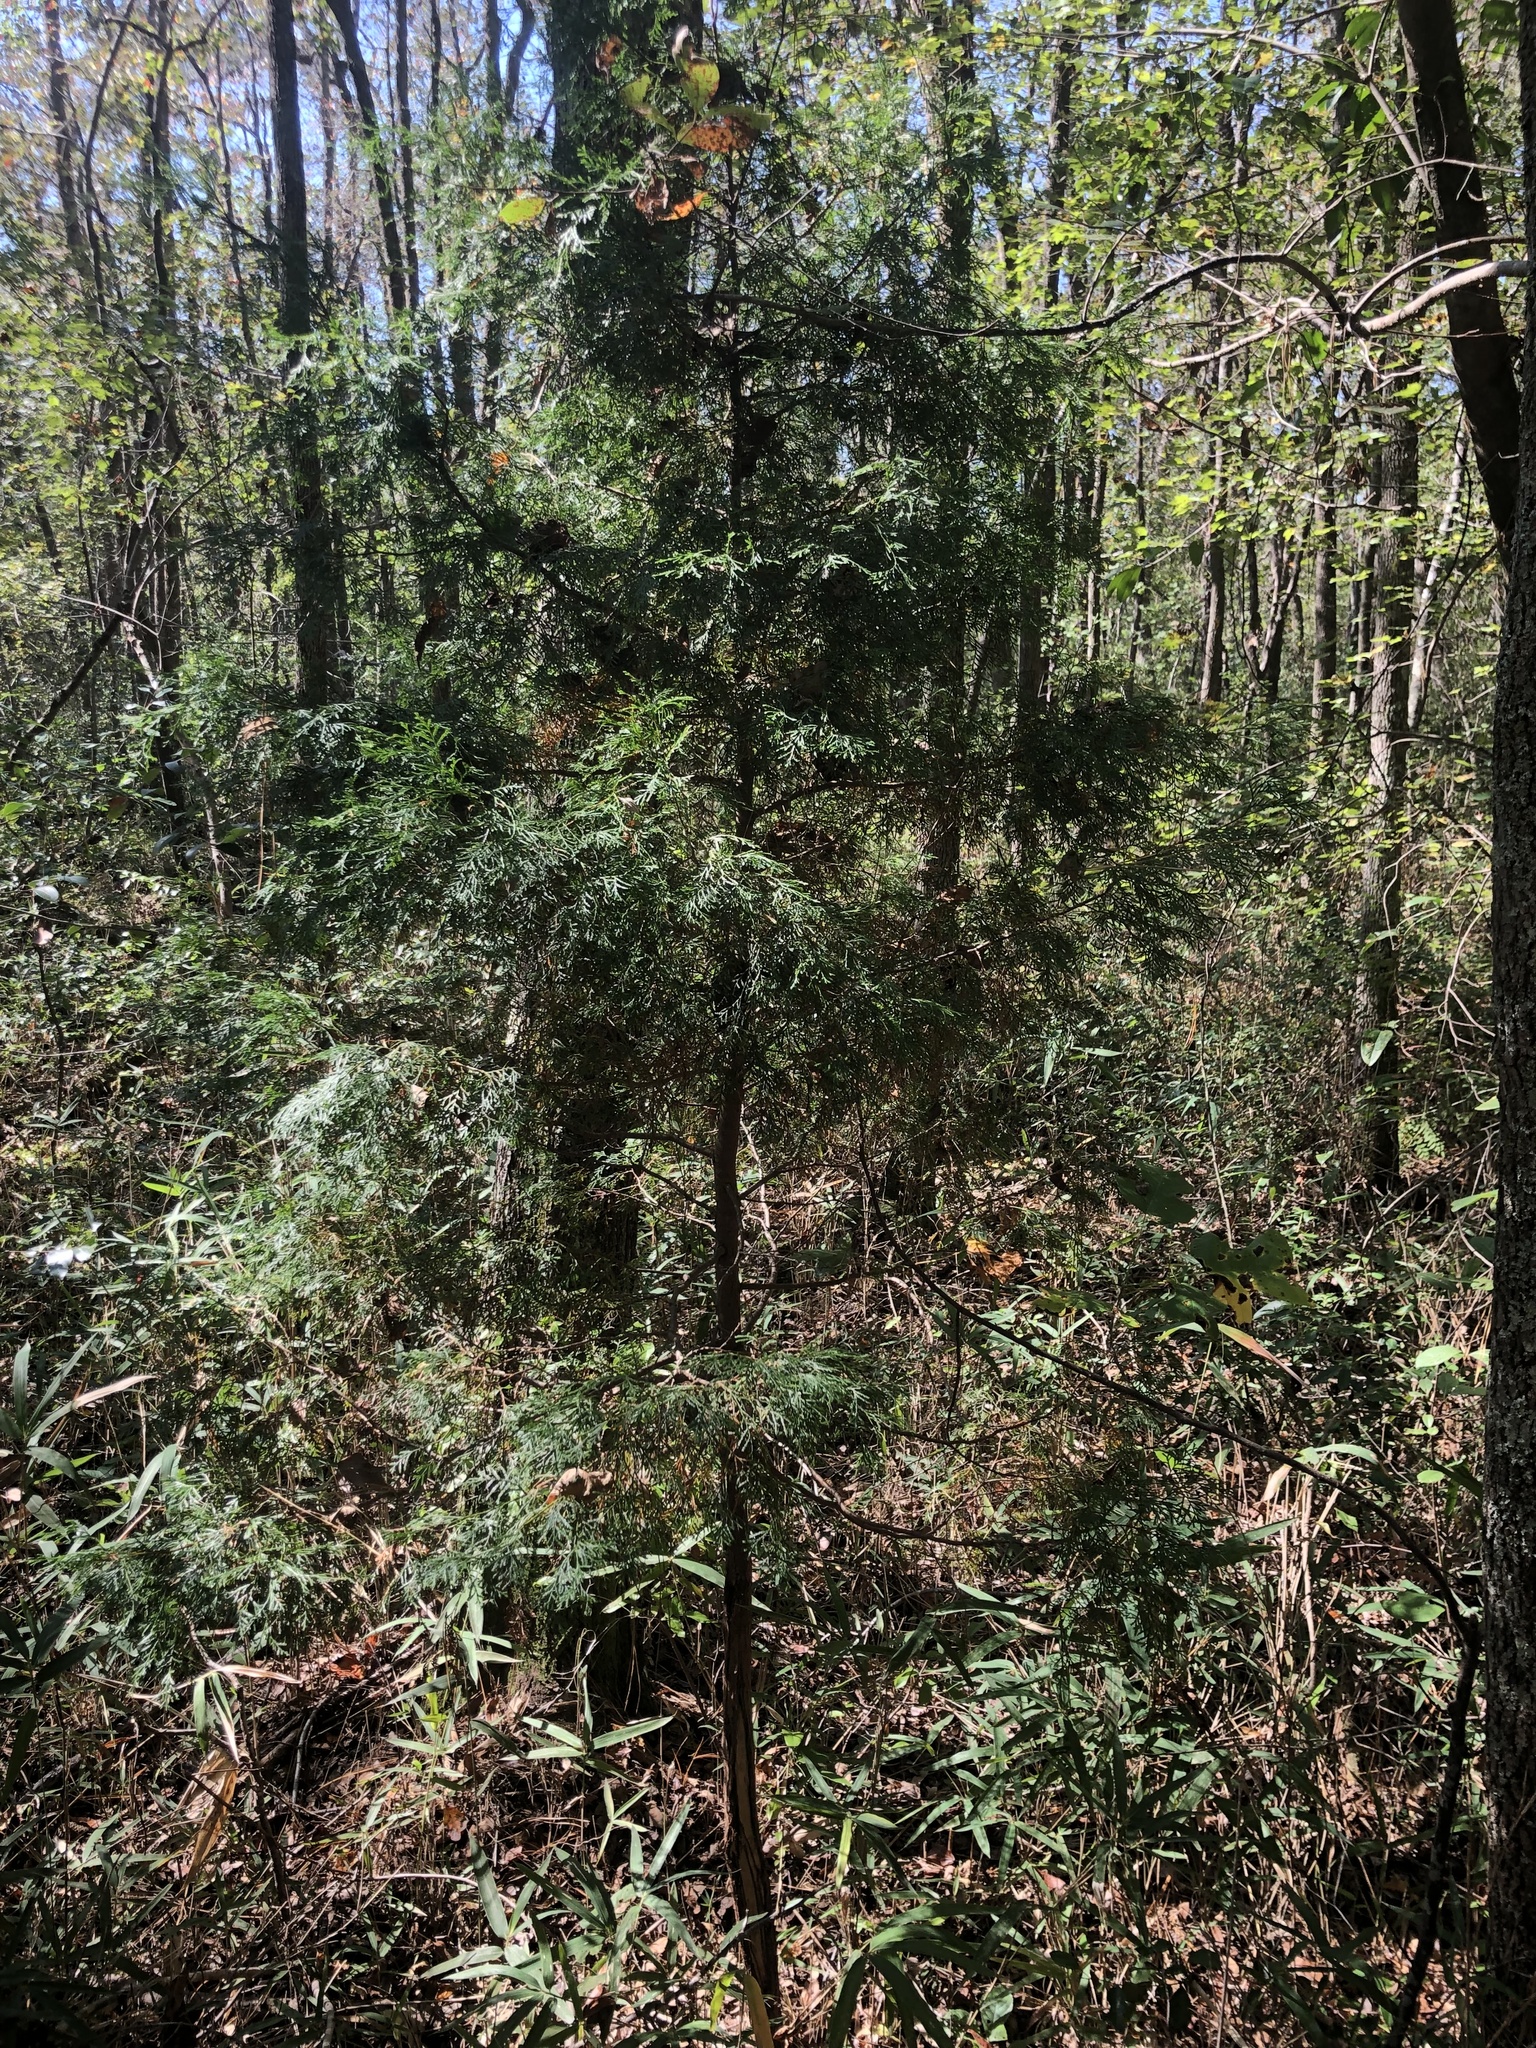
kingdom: Plantae
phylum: Tracheophyta
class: Pinopsida
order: Pinales
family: Cupressaceae
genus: Chamaecyparis
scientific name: Chamaecyparis thyoides
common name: Atlantic white cedar
